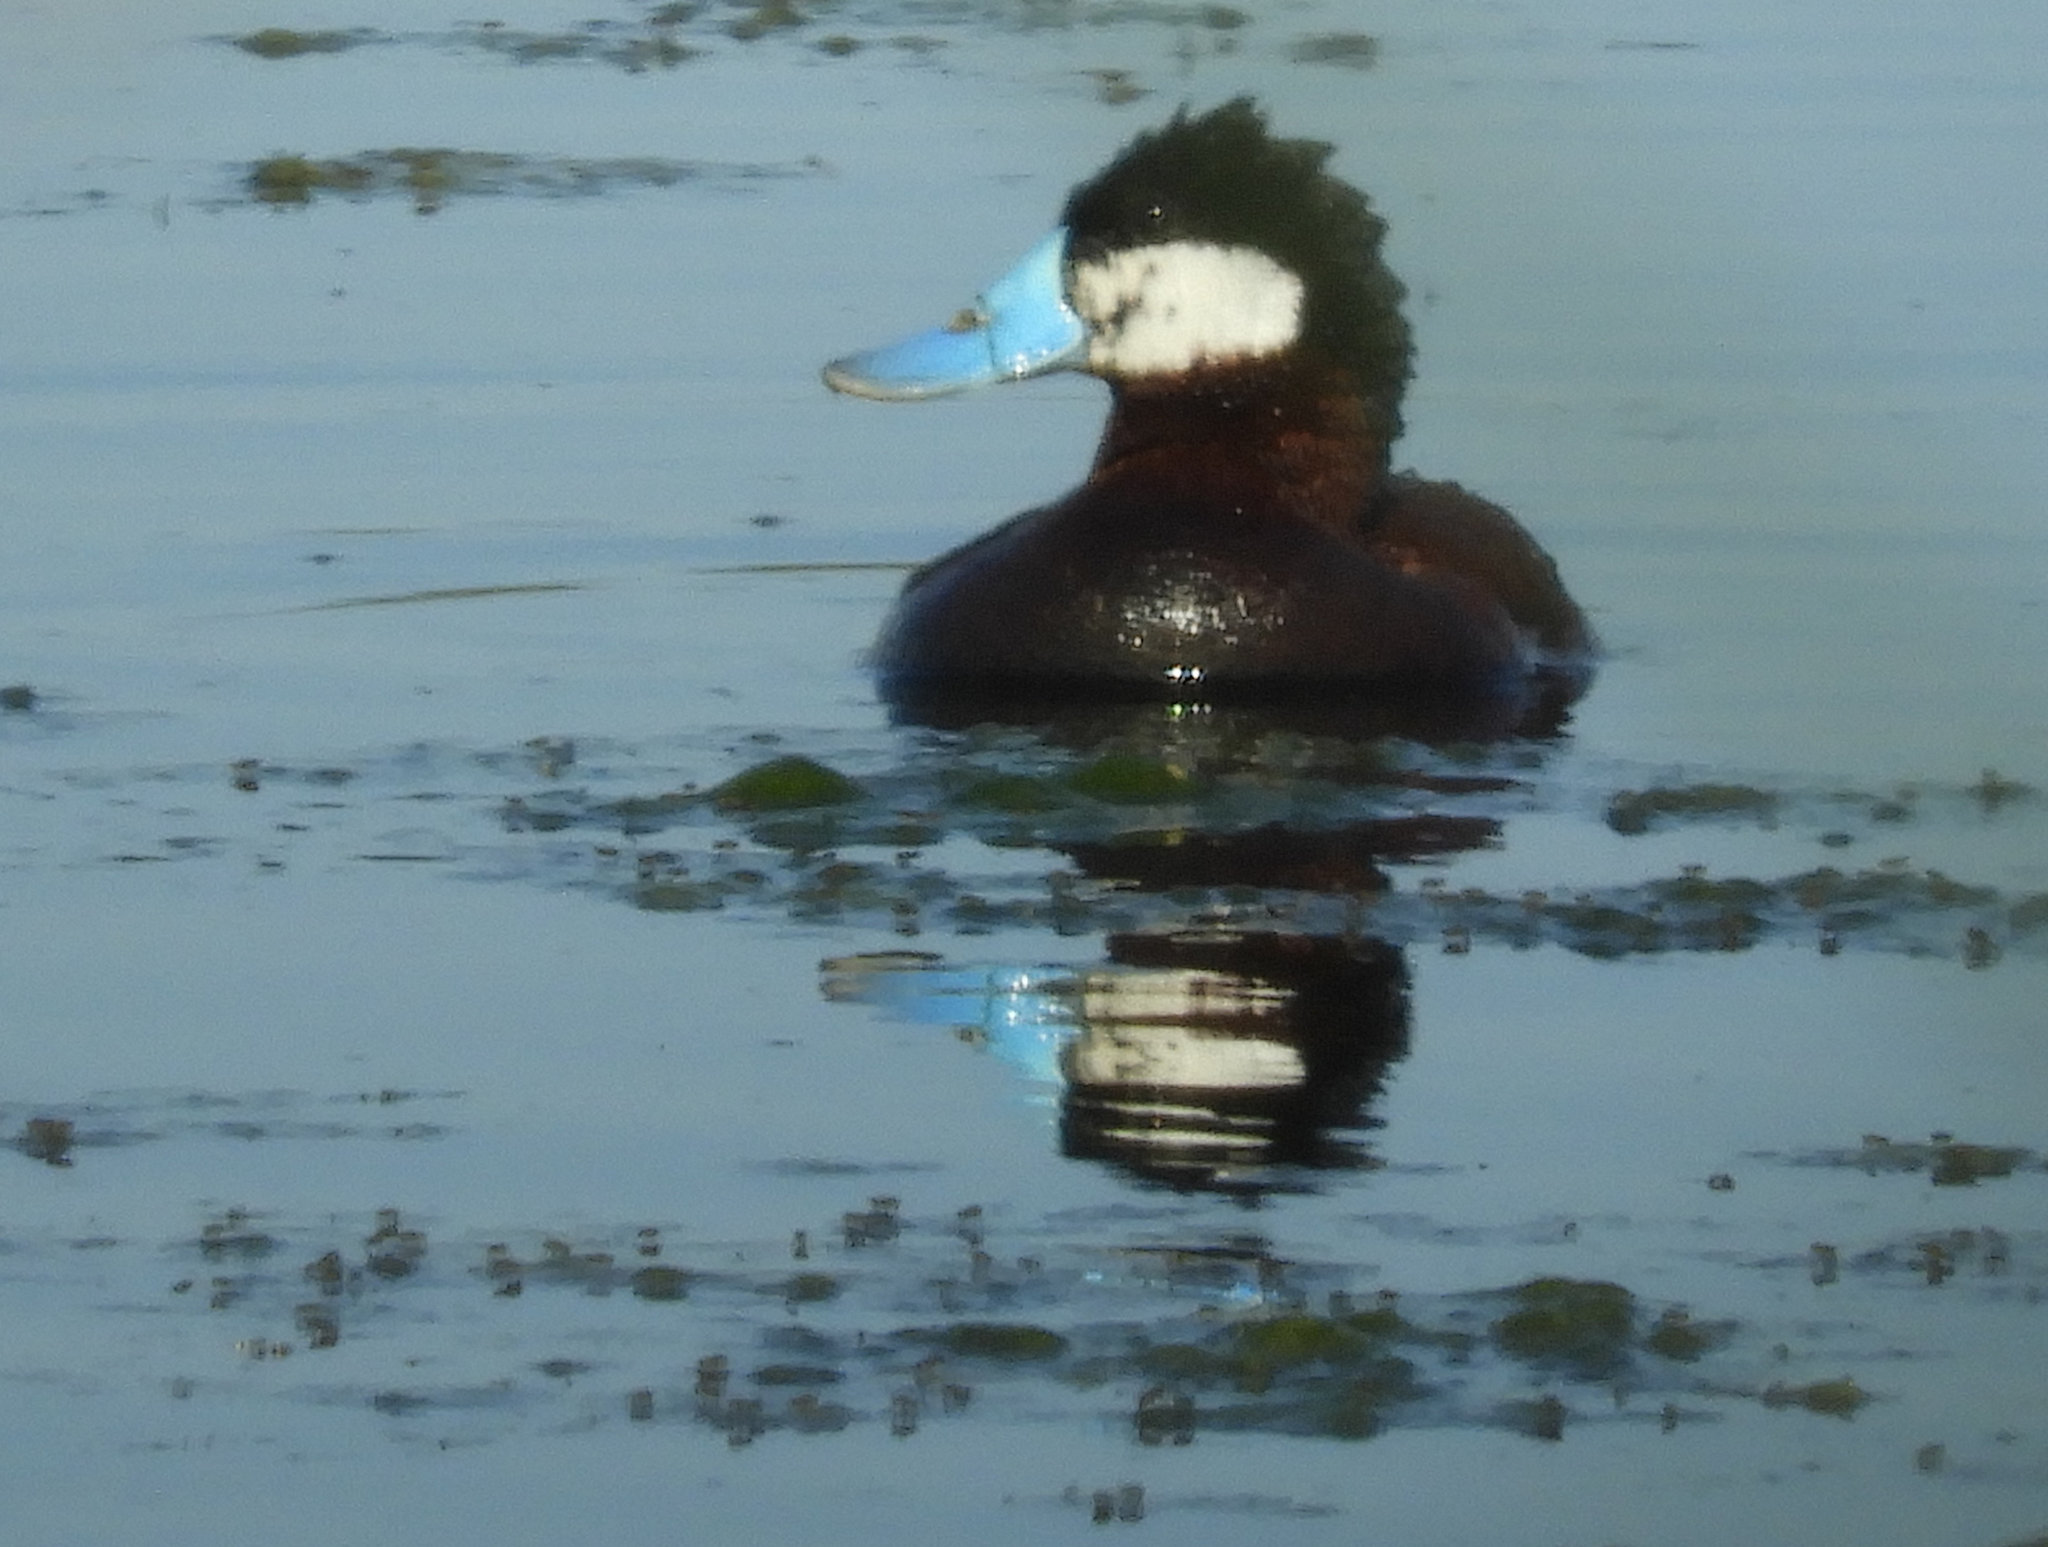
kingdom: Animalia
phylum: Chordata
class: Aves
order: Anseriformes
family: Anatidae
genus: Oxyura
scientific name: Oxyura jamaicensis
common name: Ruddy duck
